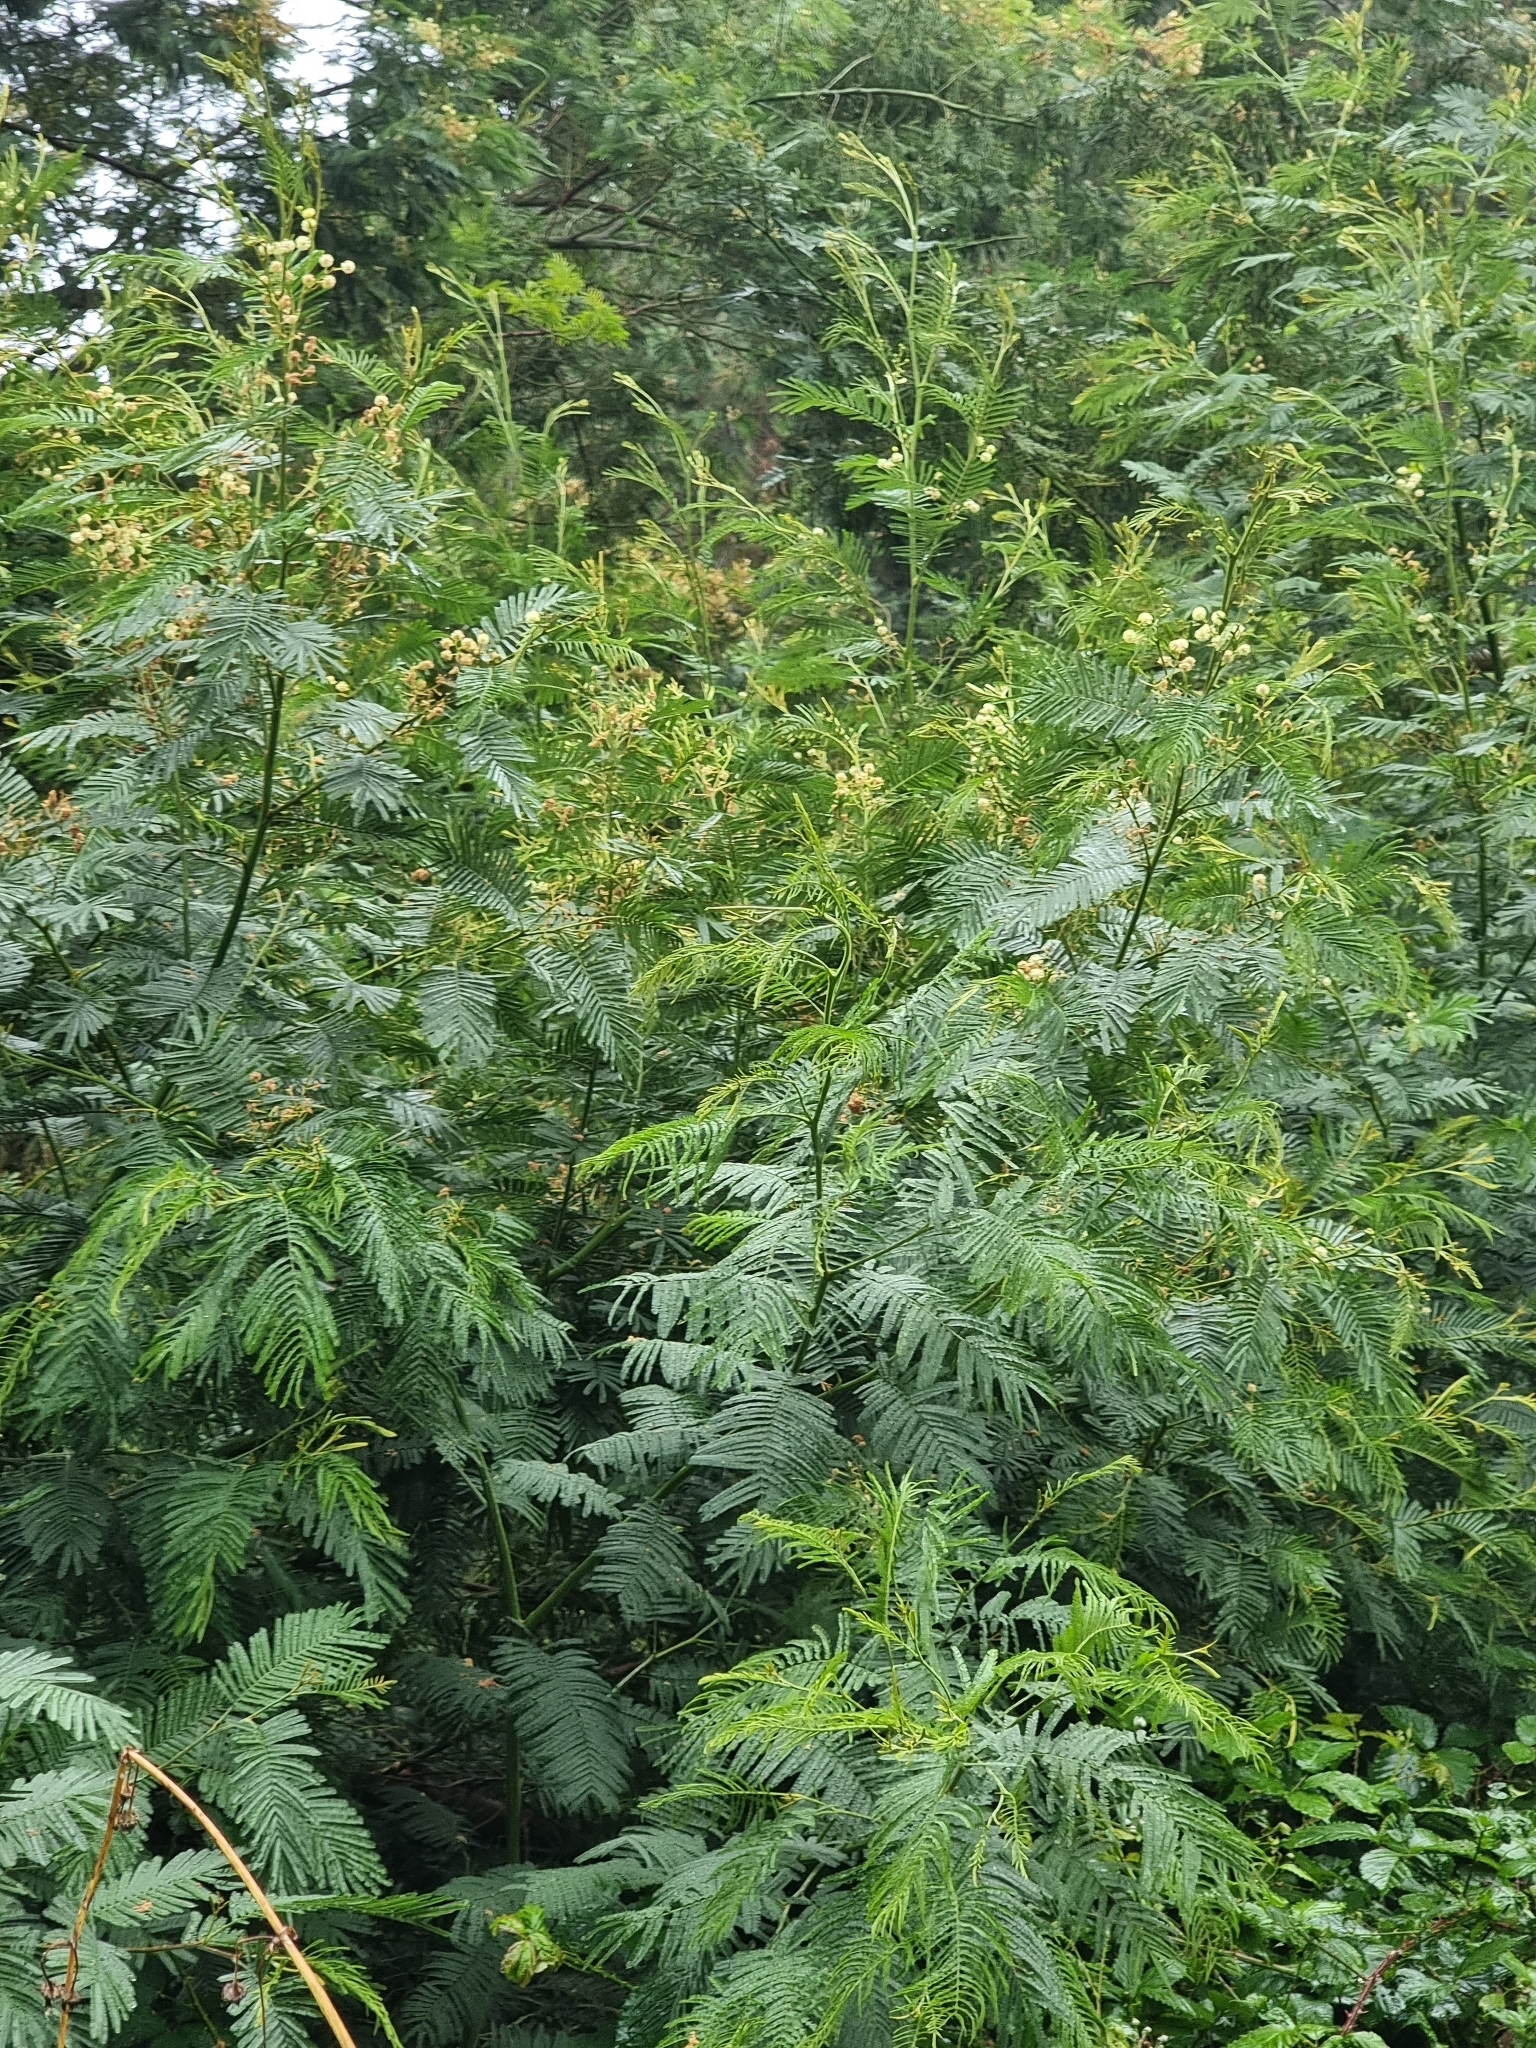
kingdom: Plantae
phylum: Tracheophyta
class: Magnoliopsida
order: Fabales
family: Fabaceae
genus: Acacia
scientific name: Acacia mearnsii
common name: Black wattle
